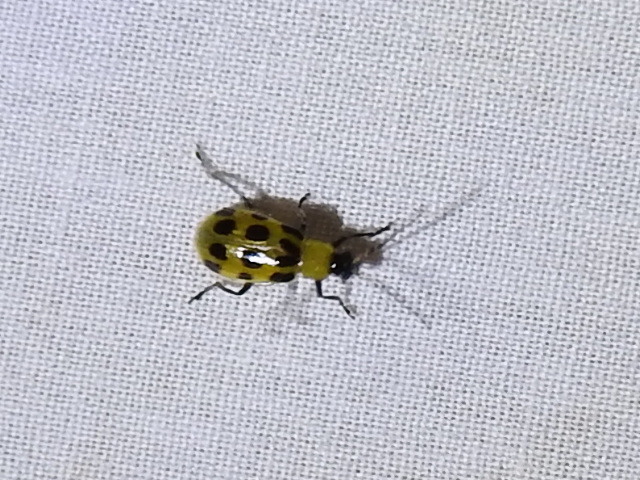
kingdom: Animalia
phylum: Arthropoda
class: Insecta
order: Coleoptera
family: Chrysomelidae
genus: Diabrotica
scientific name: Diabrotica undecimpunctata
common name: Spotted cucumber beetle
